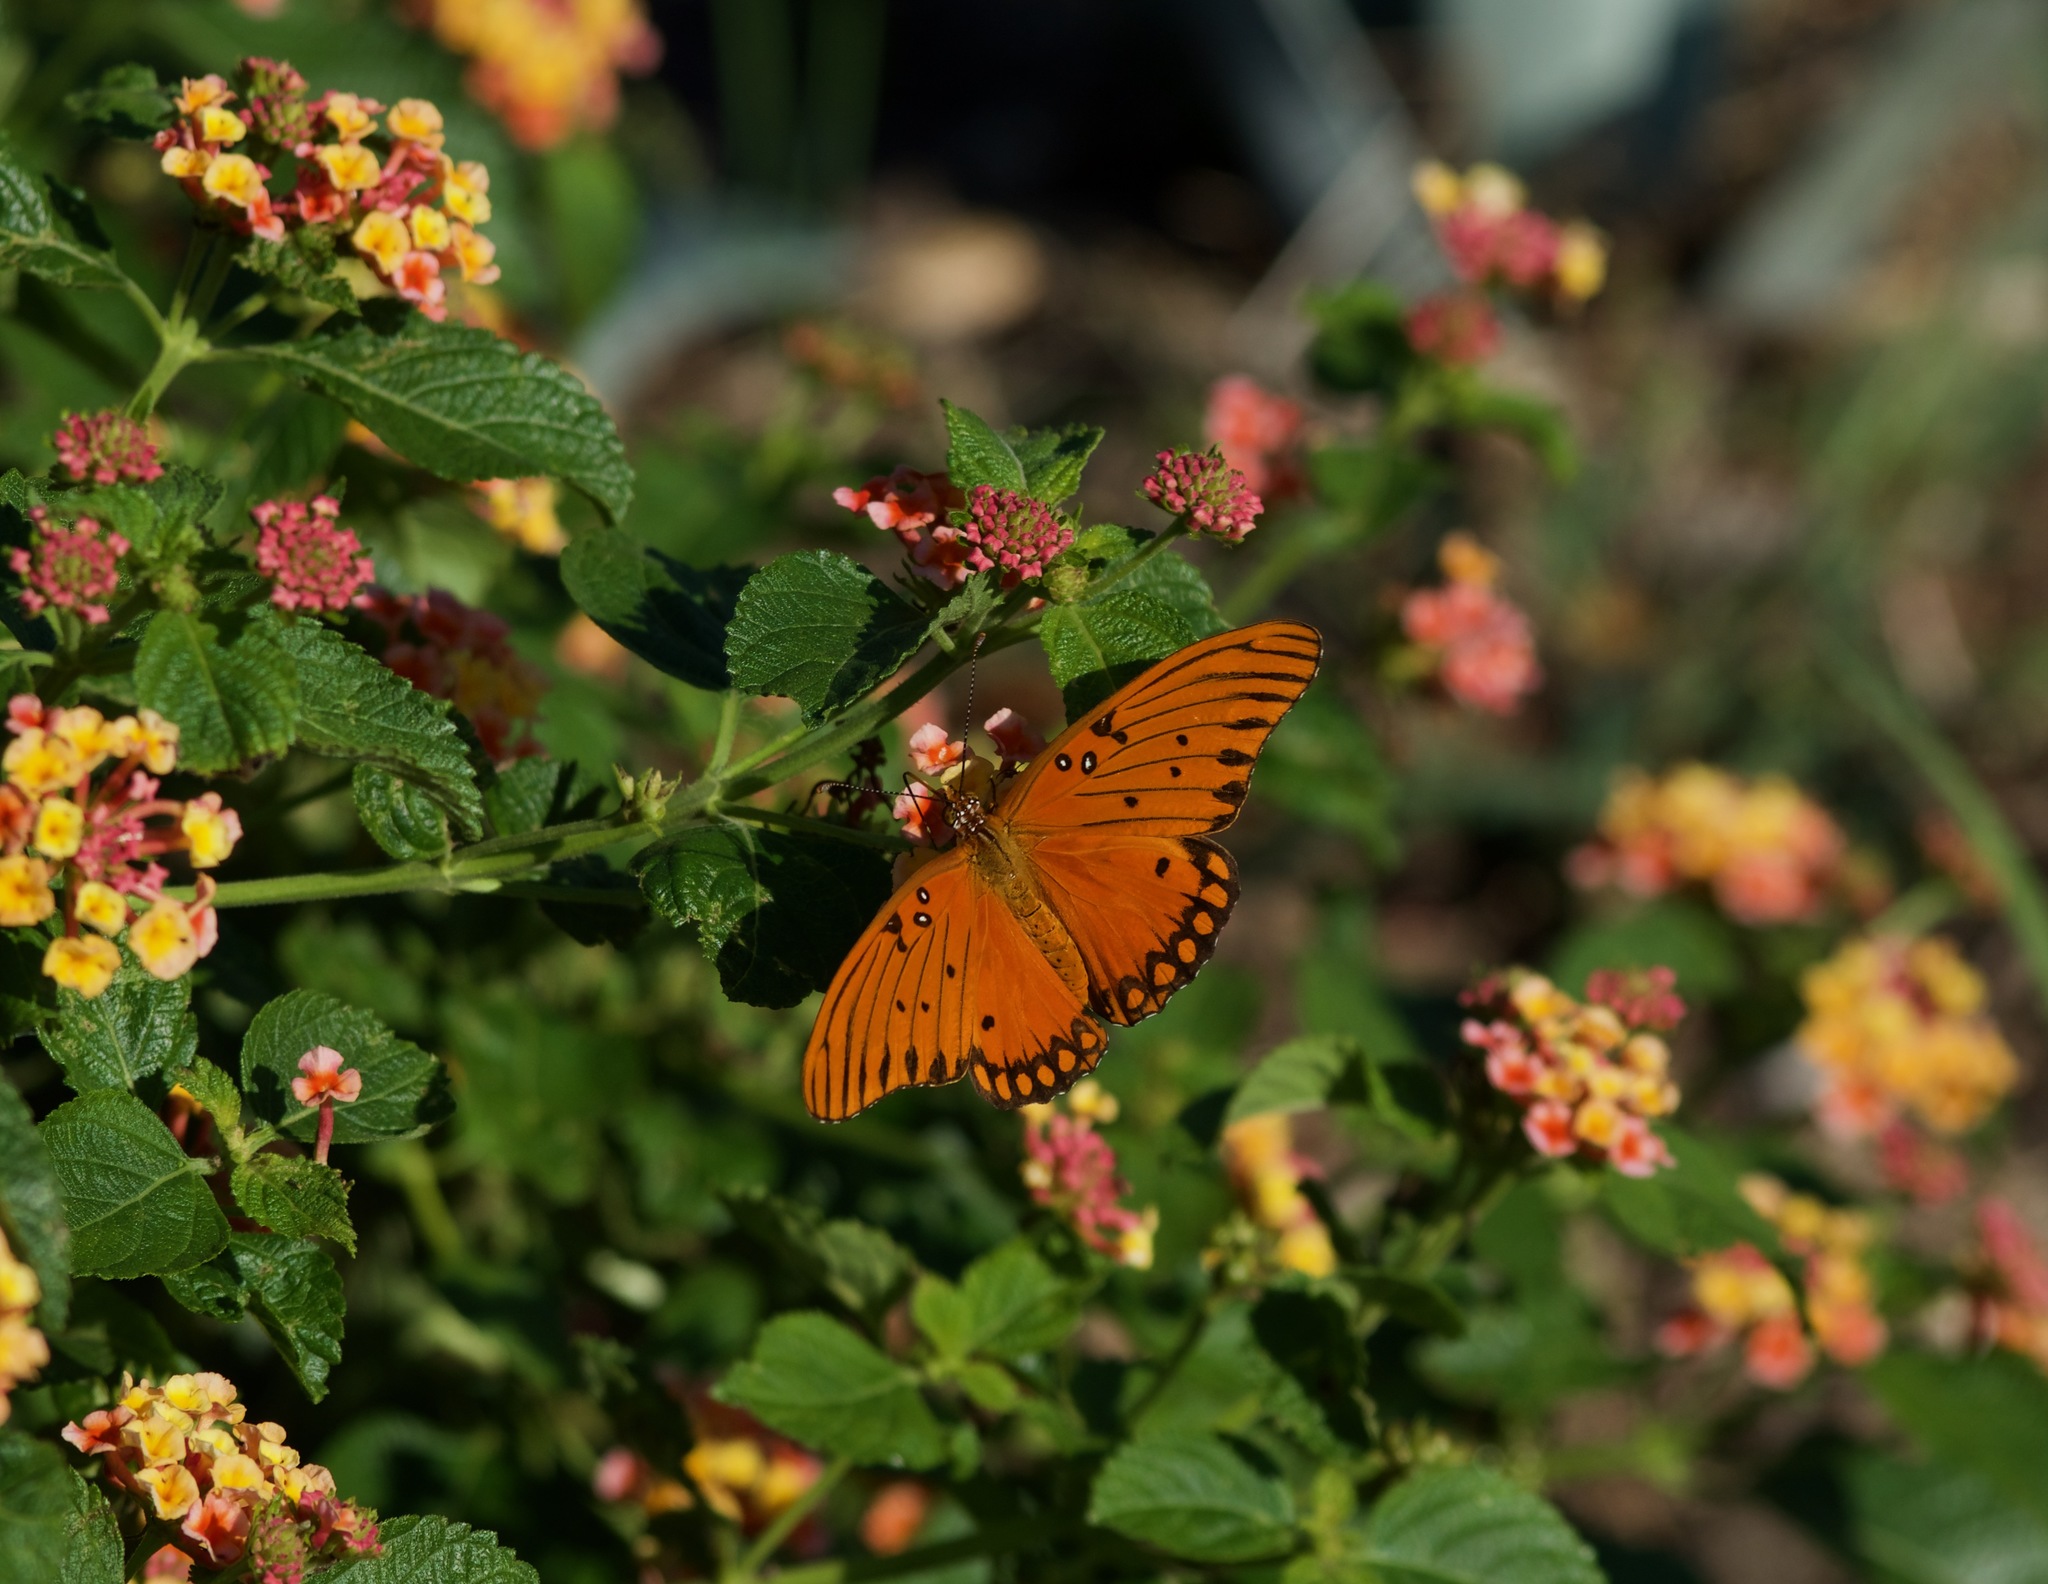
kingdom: Animalia
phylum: Arthropoda
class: Insecta
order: Lepidoptera
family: Nymphalidae
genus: Dione
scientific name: Dione vanillae
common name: Gulf fritillary
